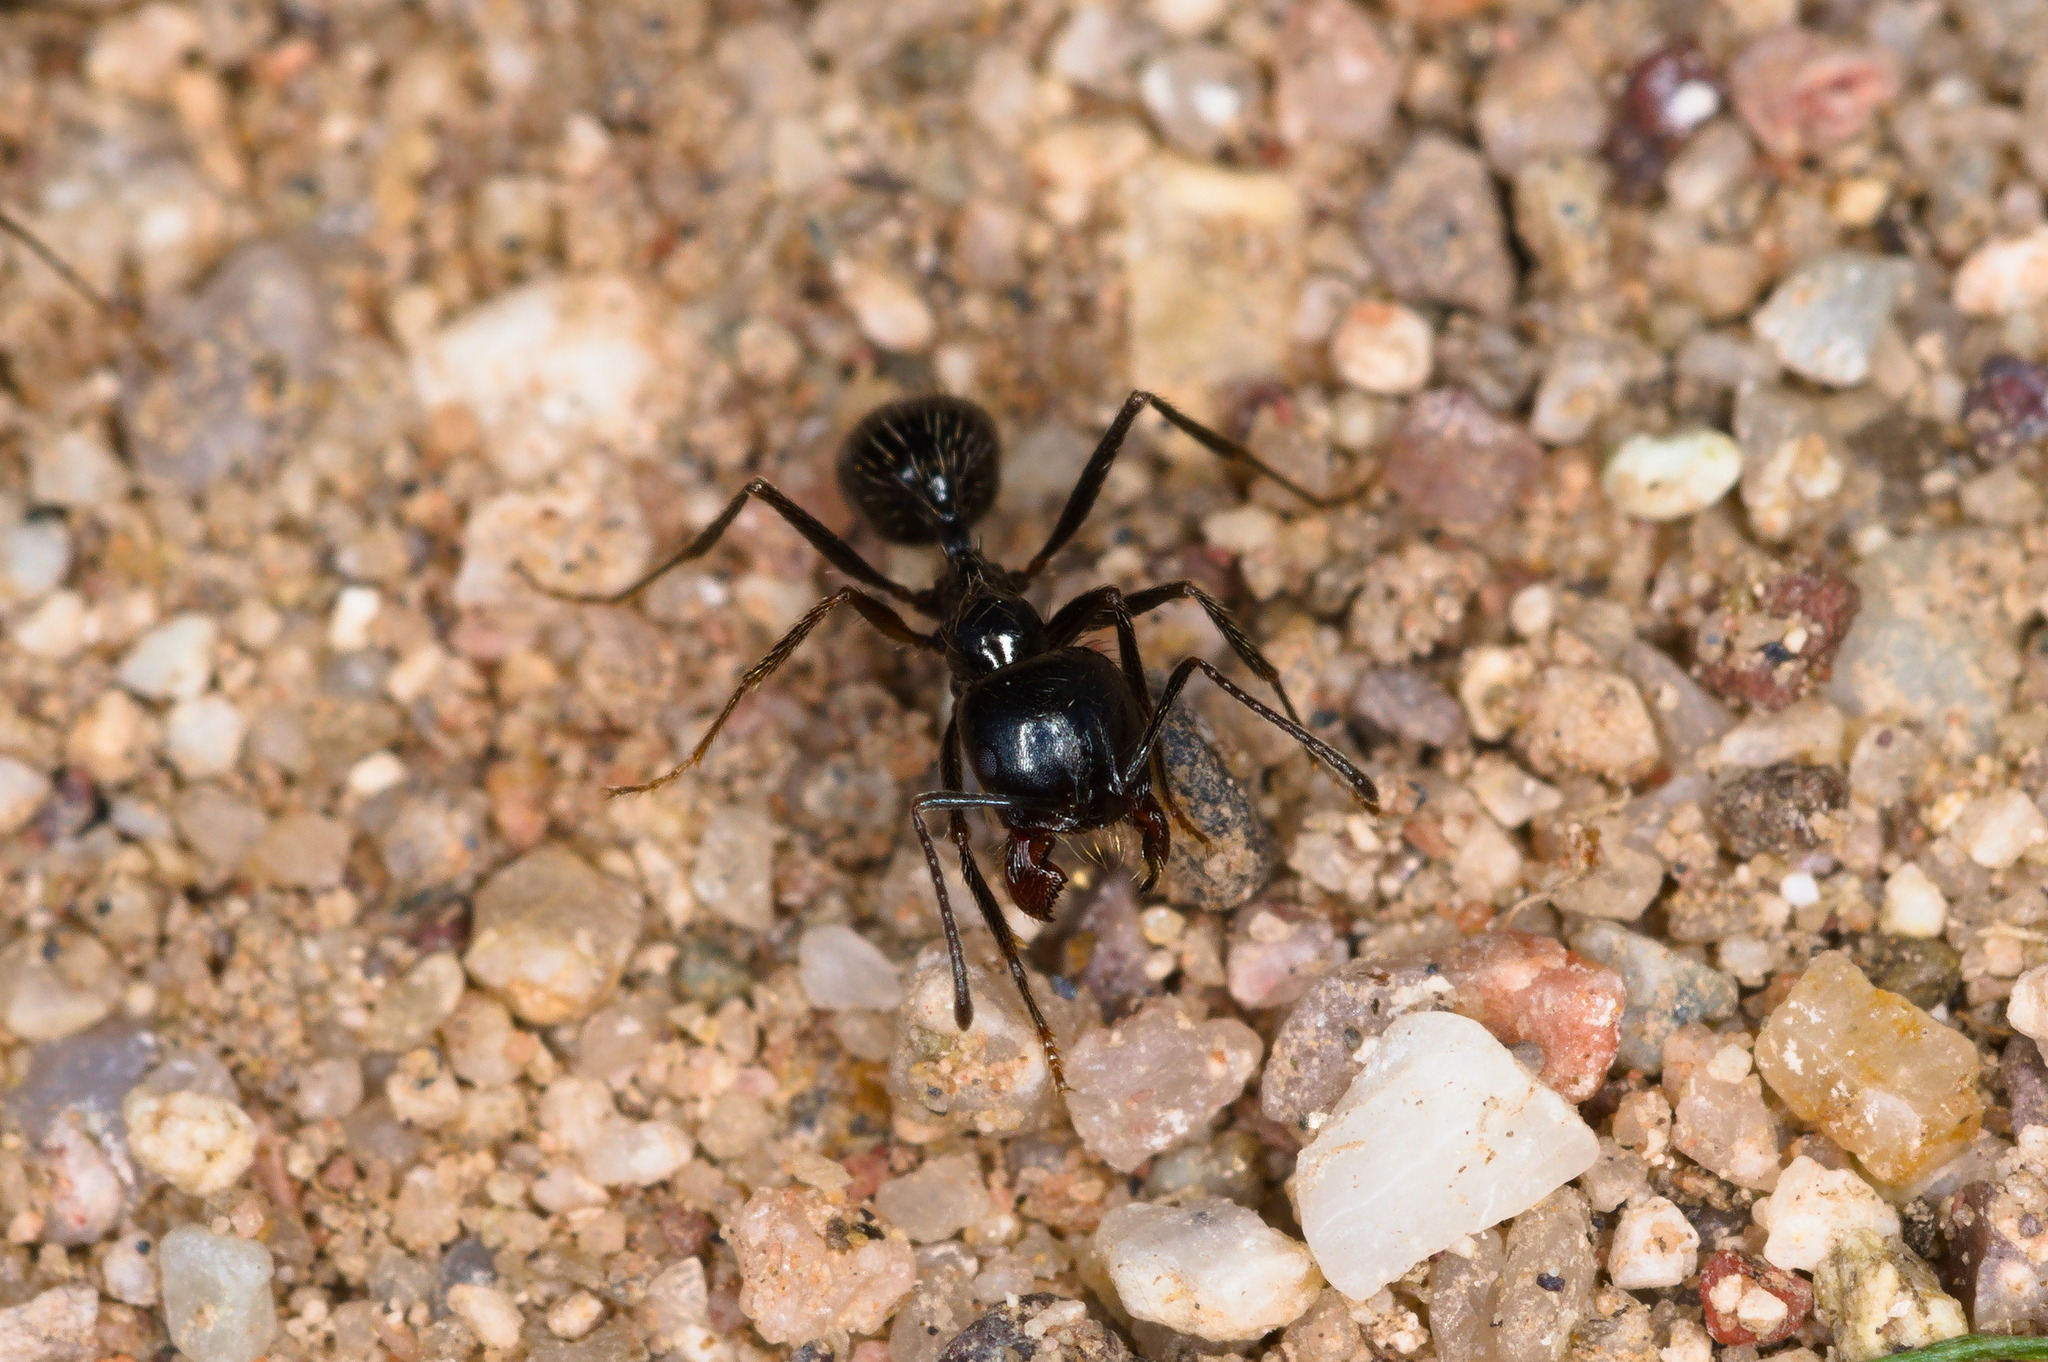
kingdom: Animalia
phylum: Arthropoda
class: Insecta
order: Hymenoptera
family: Formicidae
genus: Messor
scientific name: Messor pergandei
